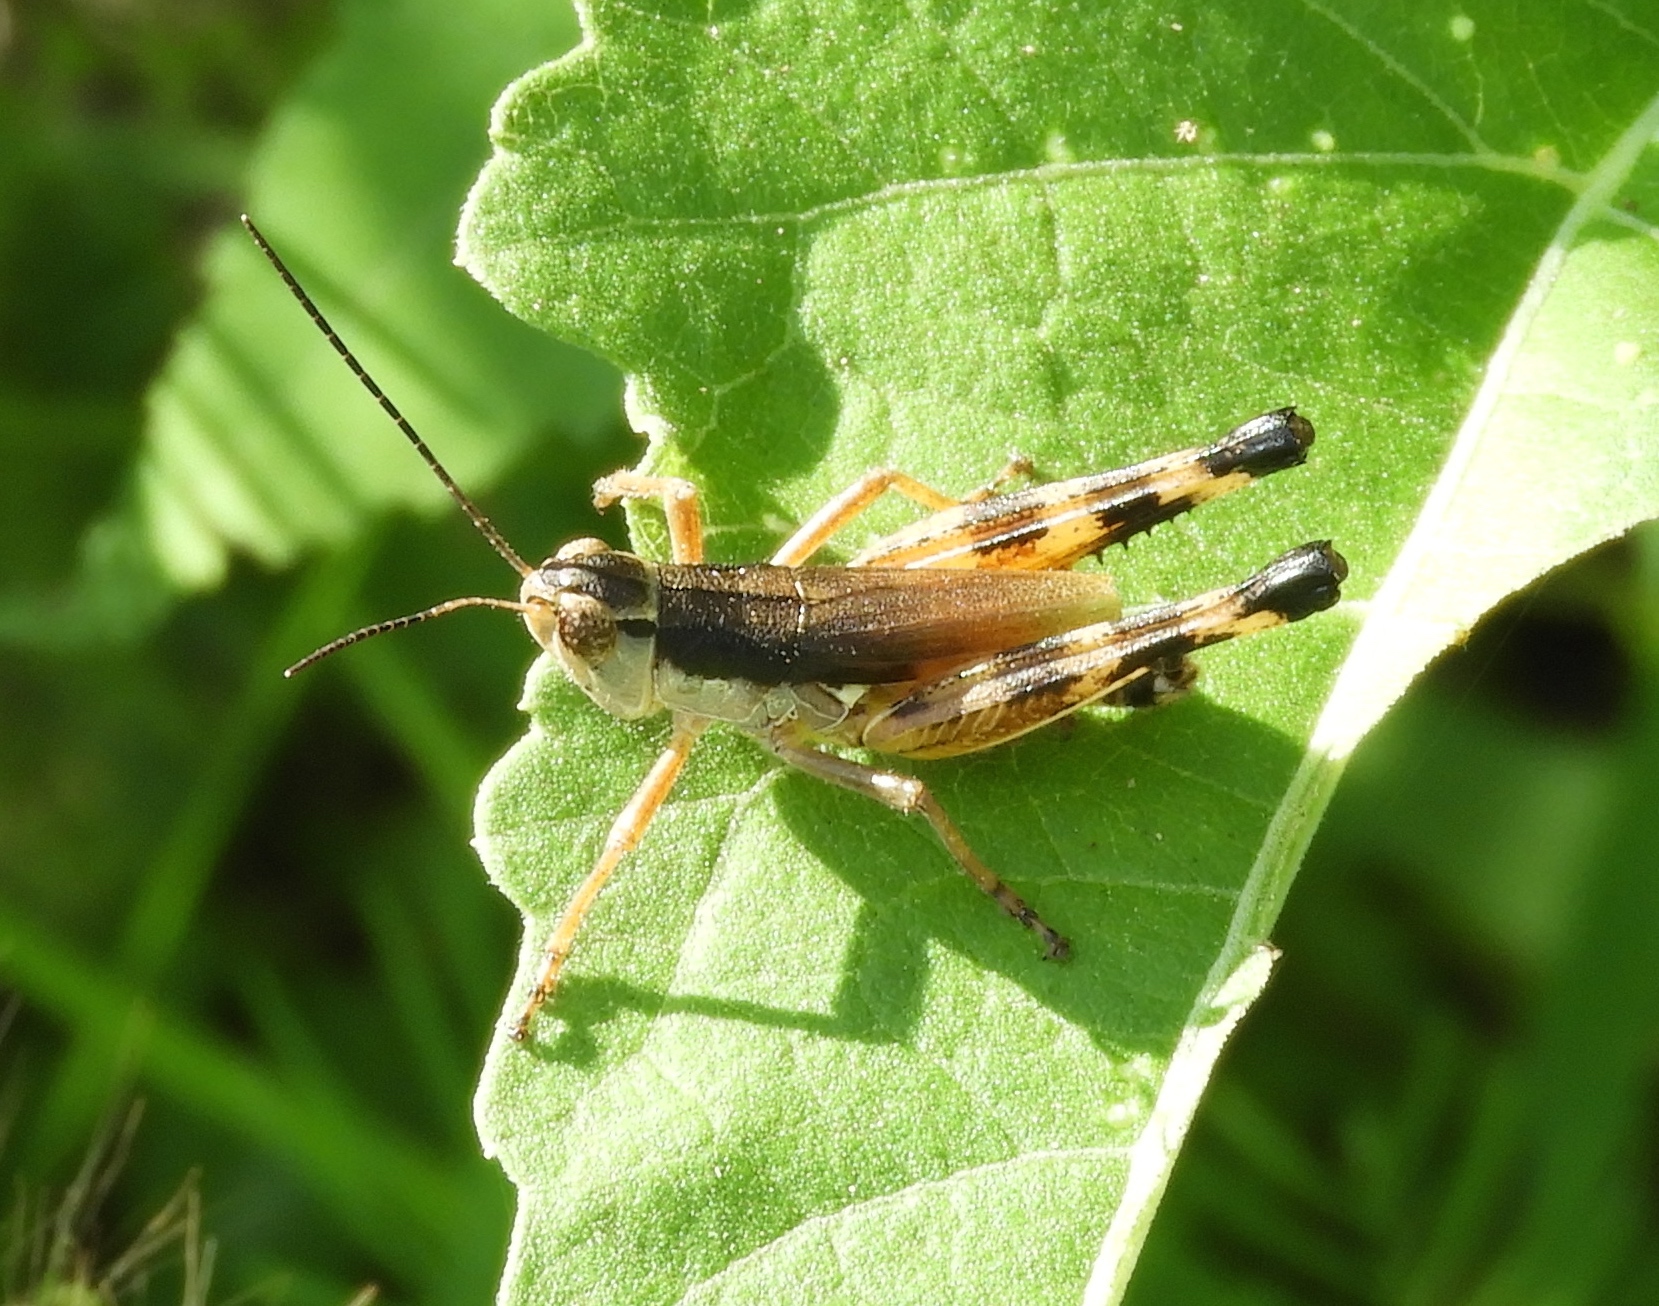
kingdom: Animalia
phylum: Arthropoda
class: Insecta
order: Orthoptera
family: Acrididae
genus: Boopedon
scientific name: Boopedon flaviventris
